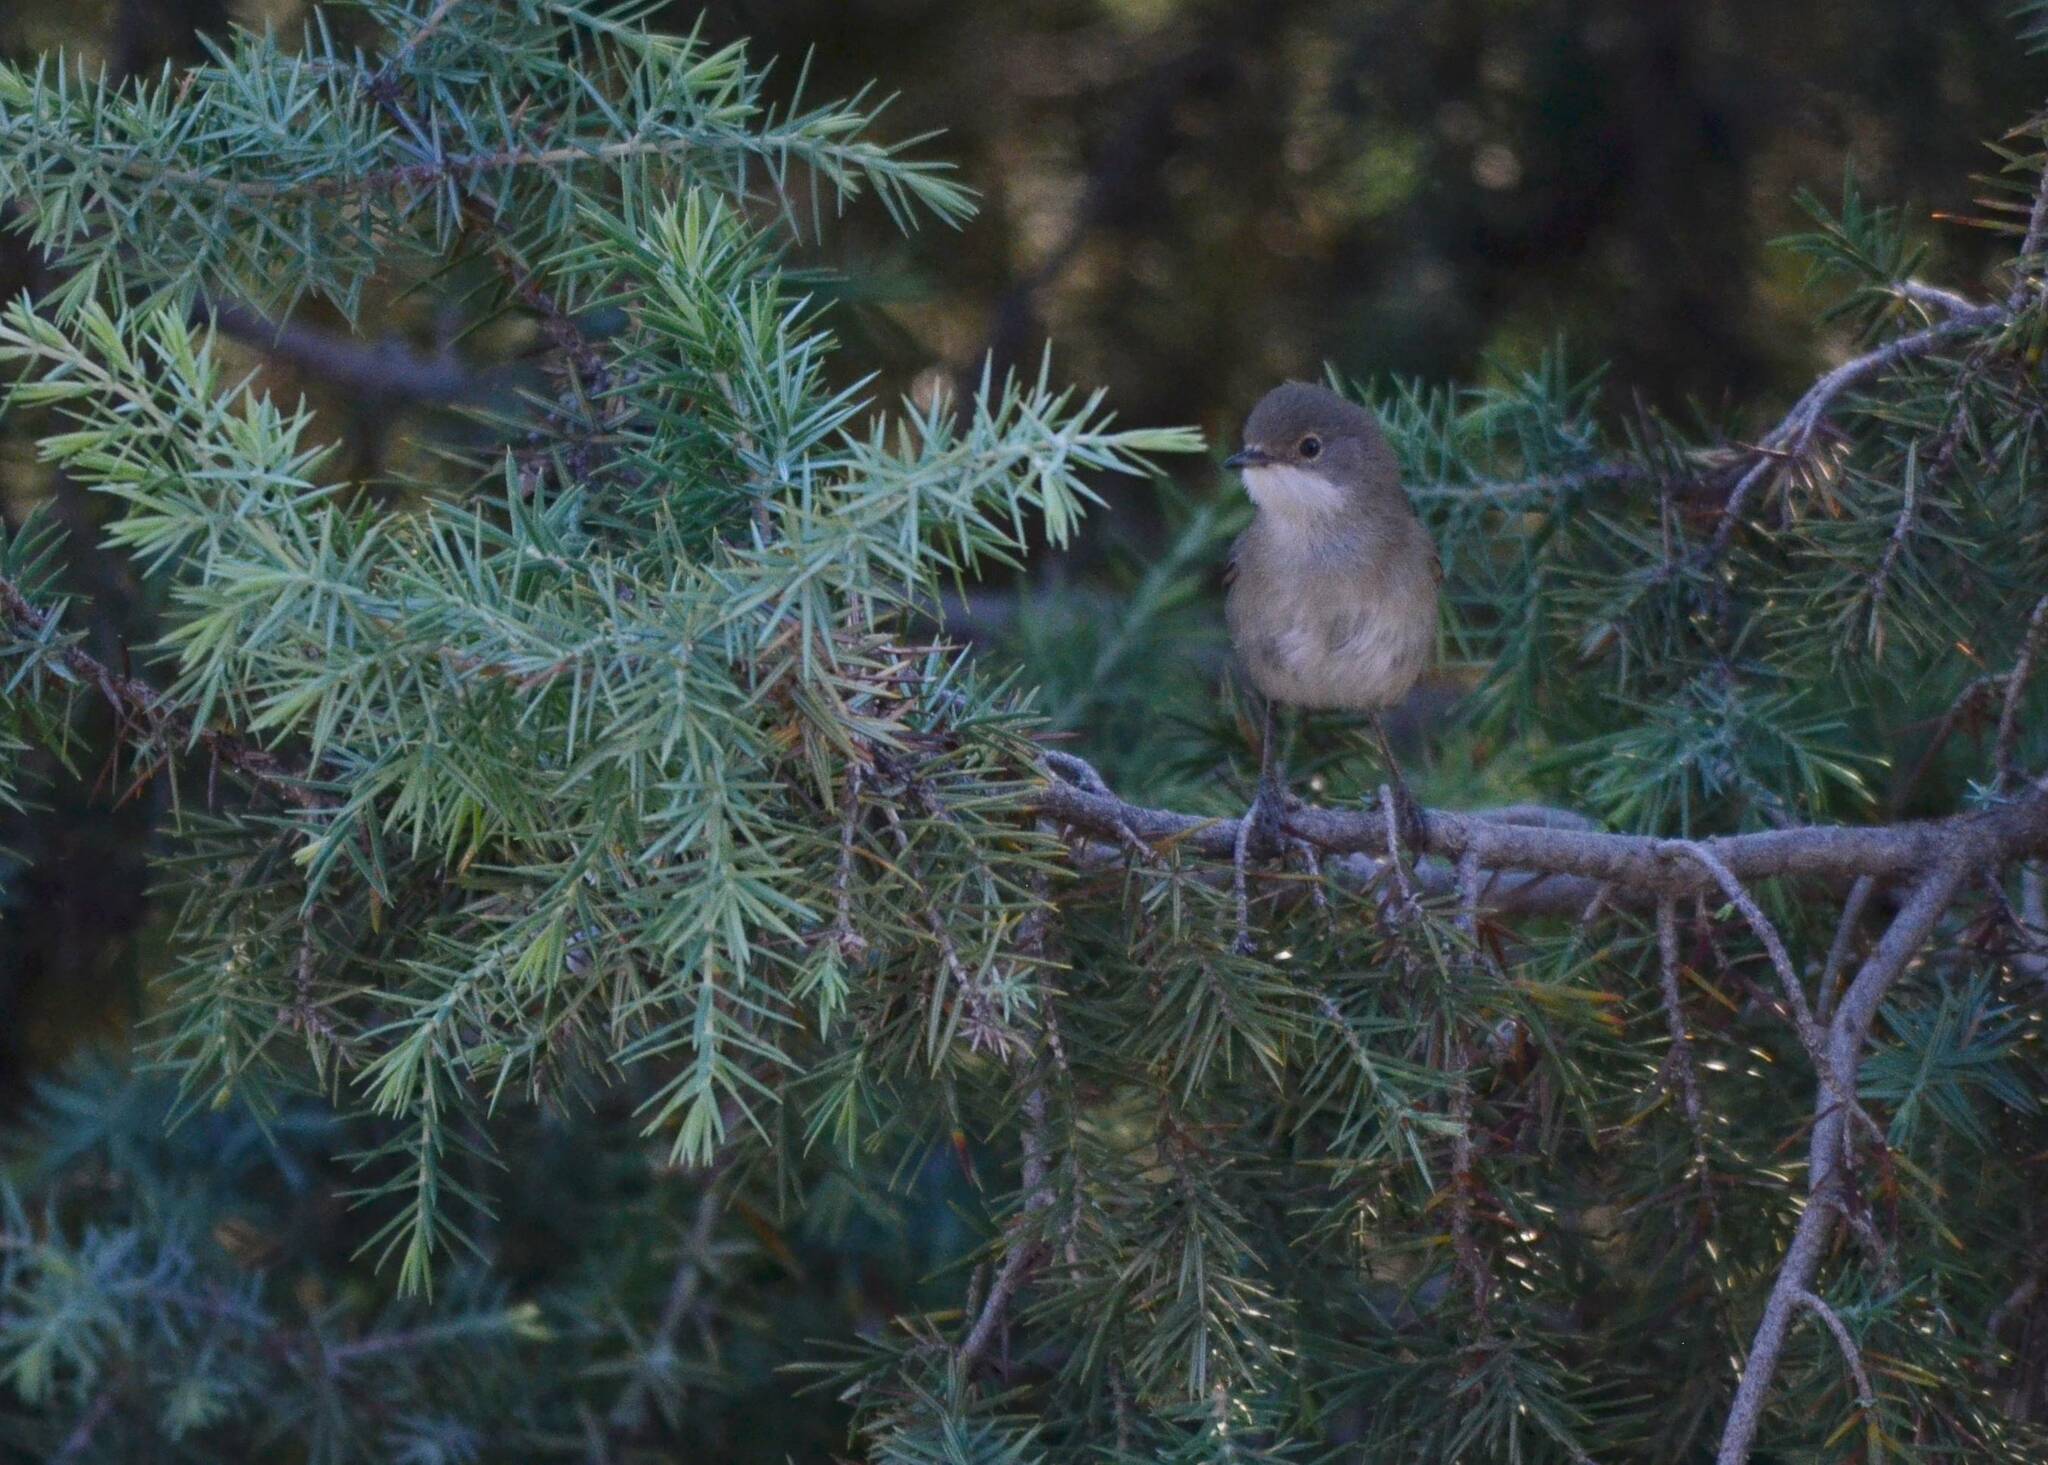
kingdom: Animalia
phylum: Chordata
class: Aves
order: Passeriformes
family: Sylviidae
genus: Curruca
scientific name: Curruca melanocephala
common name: Sardinian warbler
